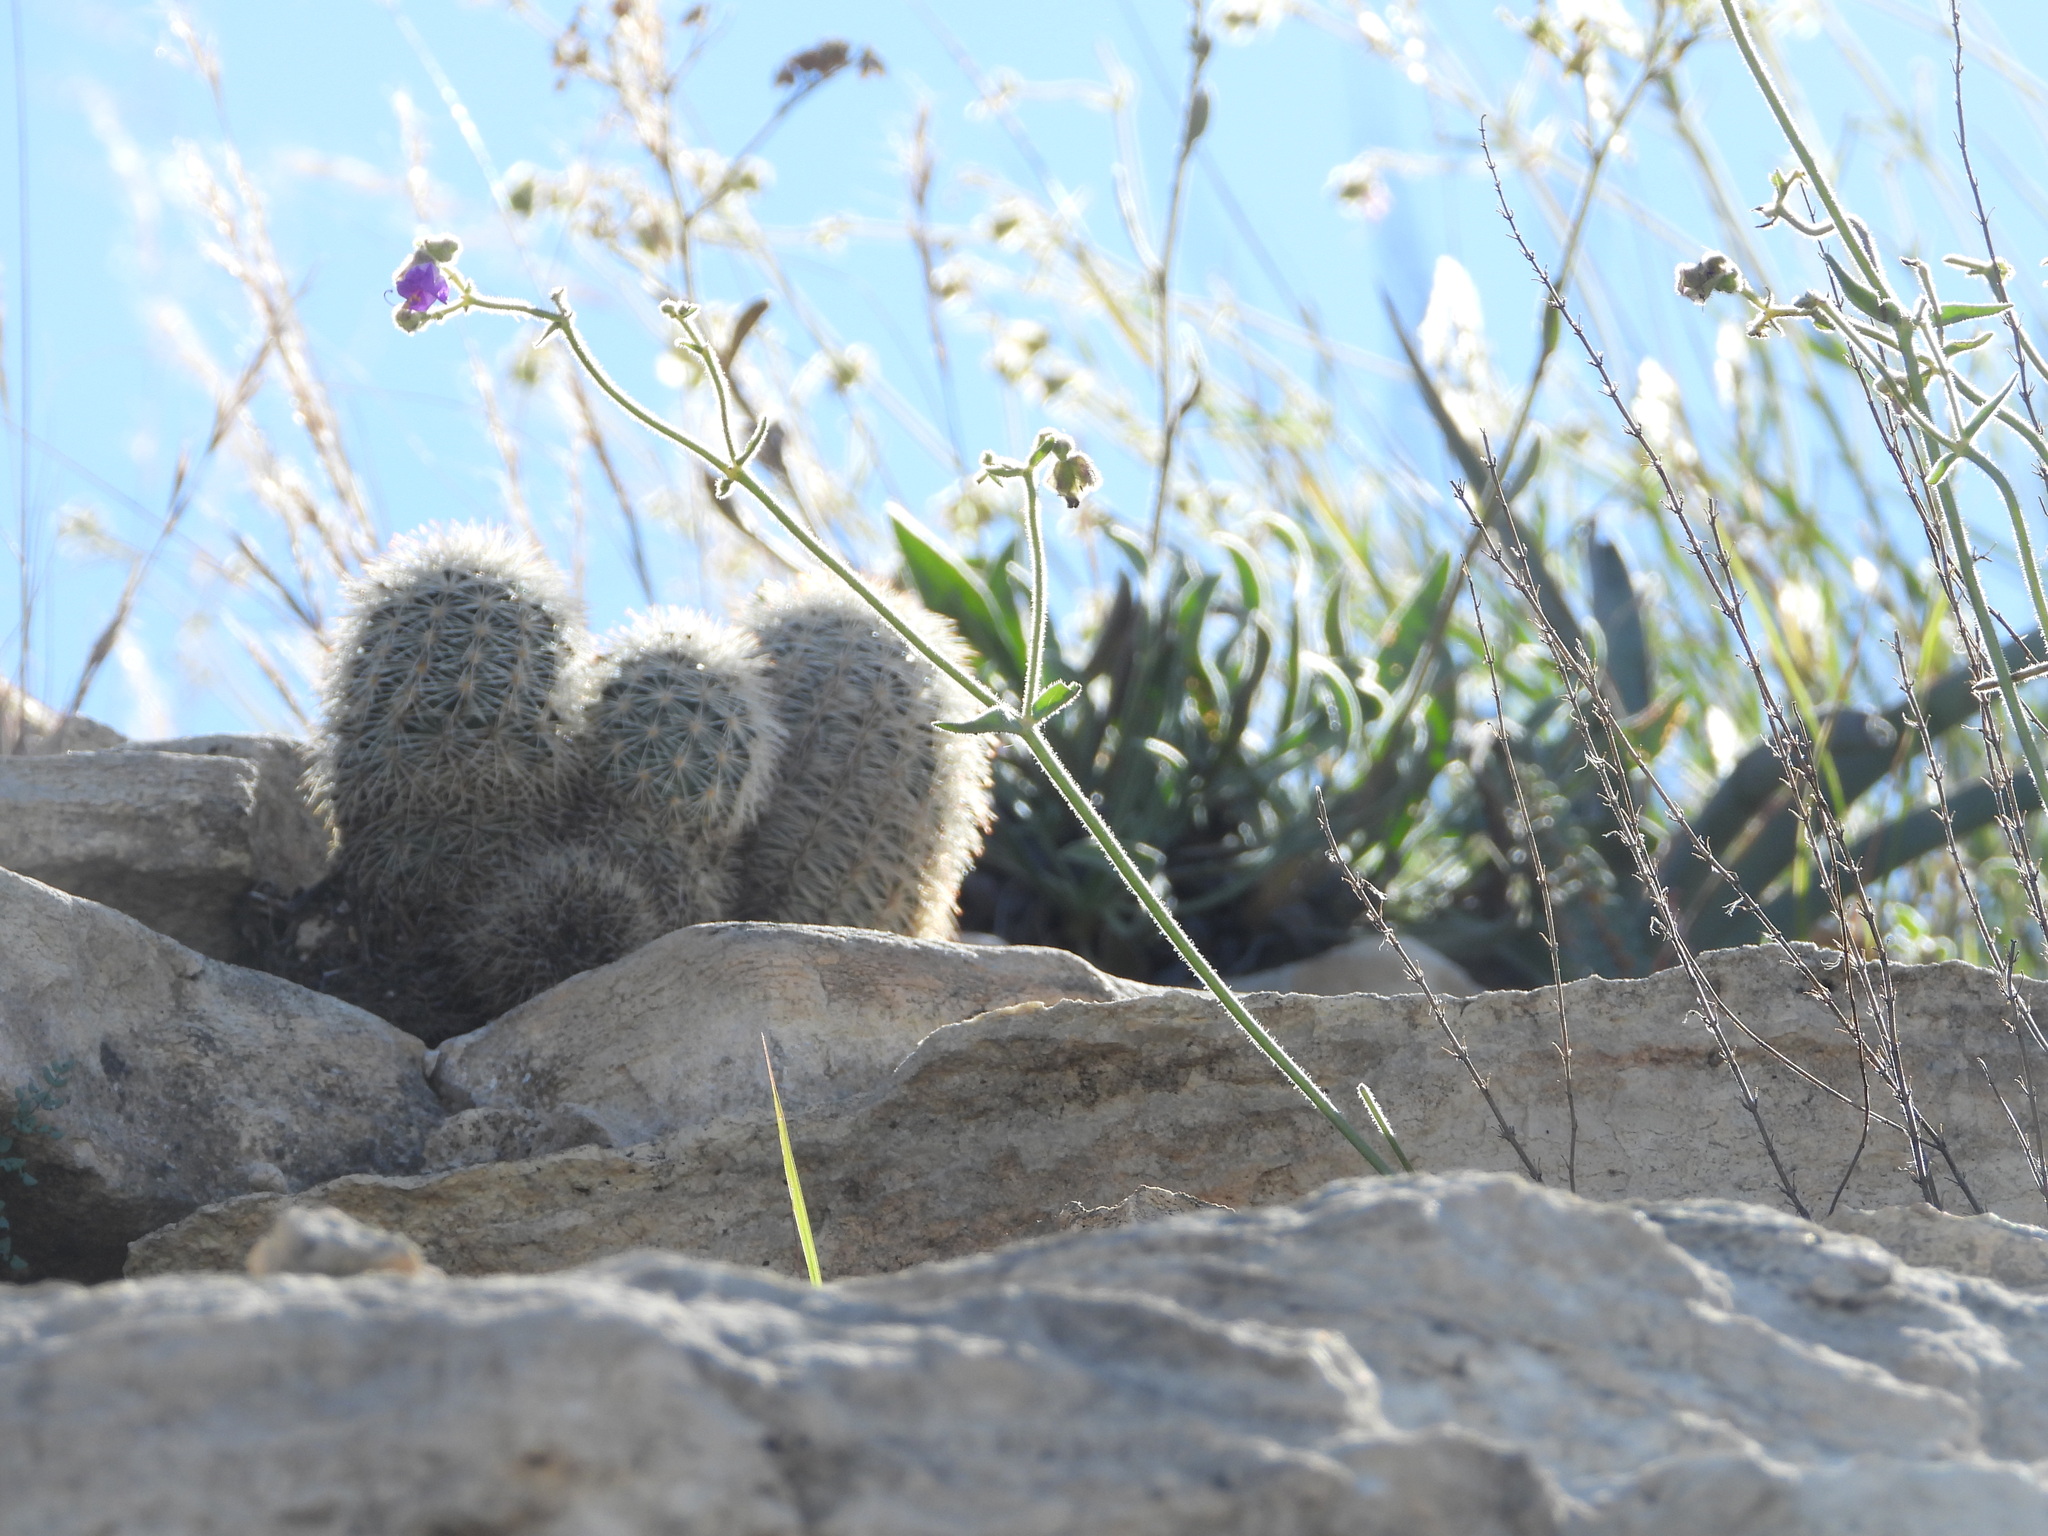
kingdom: Plantae
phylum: Tracheophyta
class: Magnoliopsida
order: Caryophyllales
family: Cactaceae
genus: Echinocereus
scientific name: Echinocereus dasyacanthus
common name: Spiny hedgehog cactus
